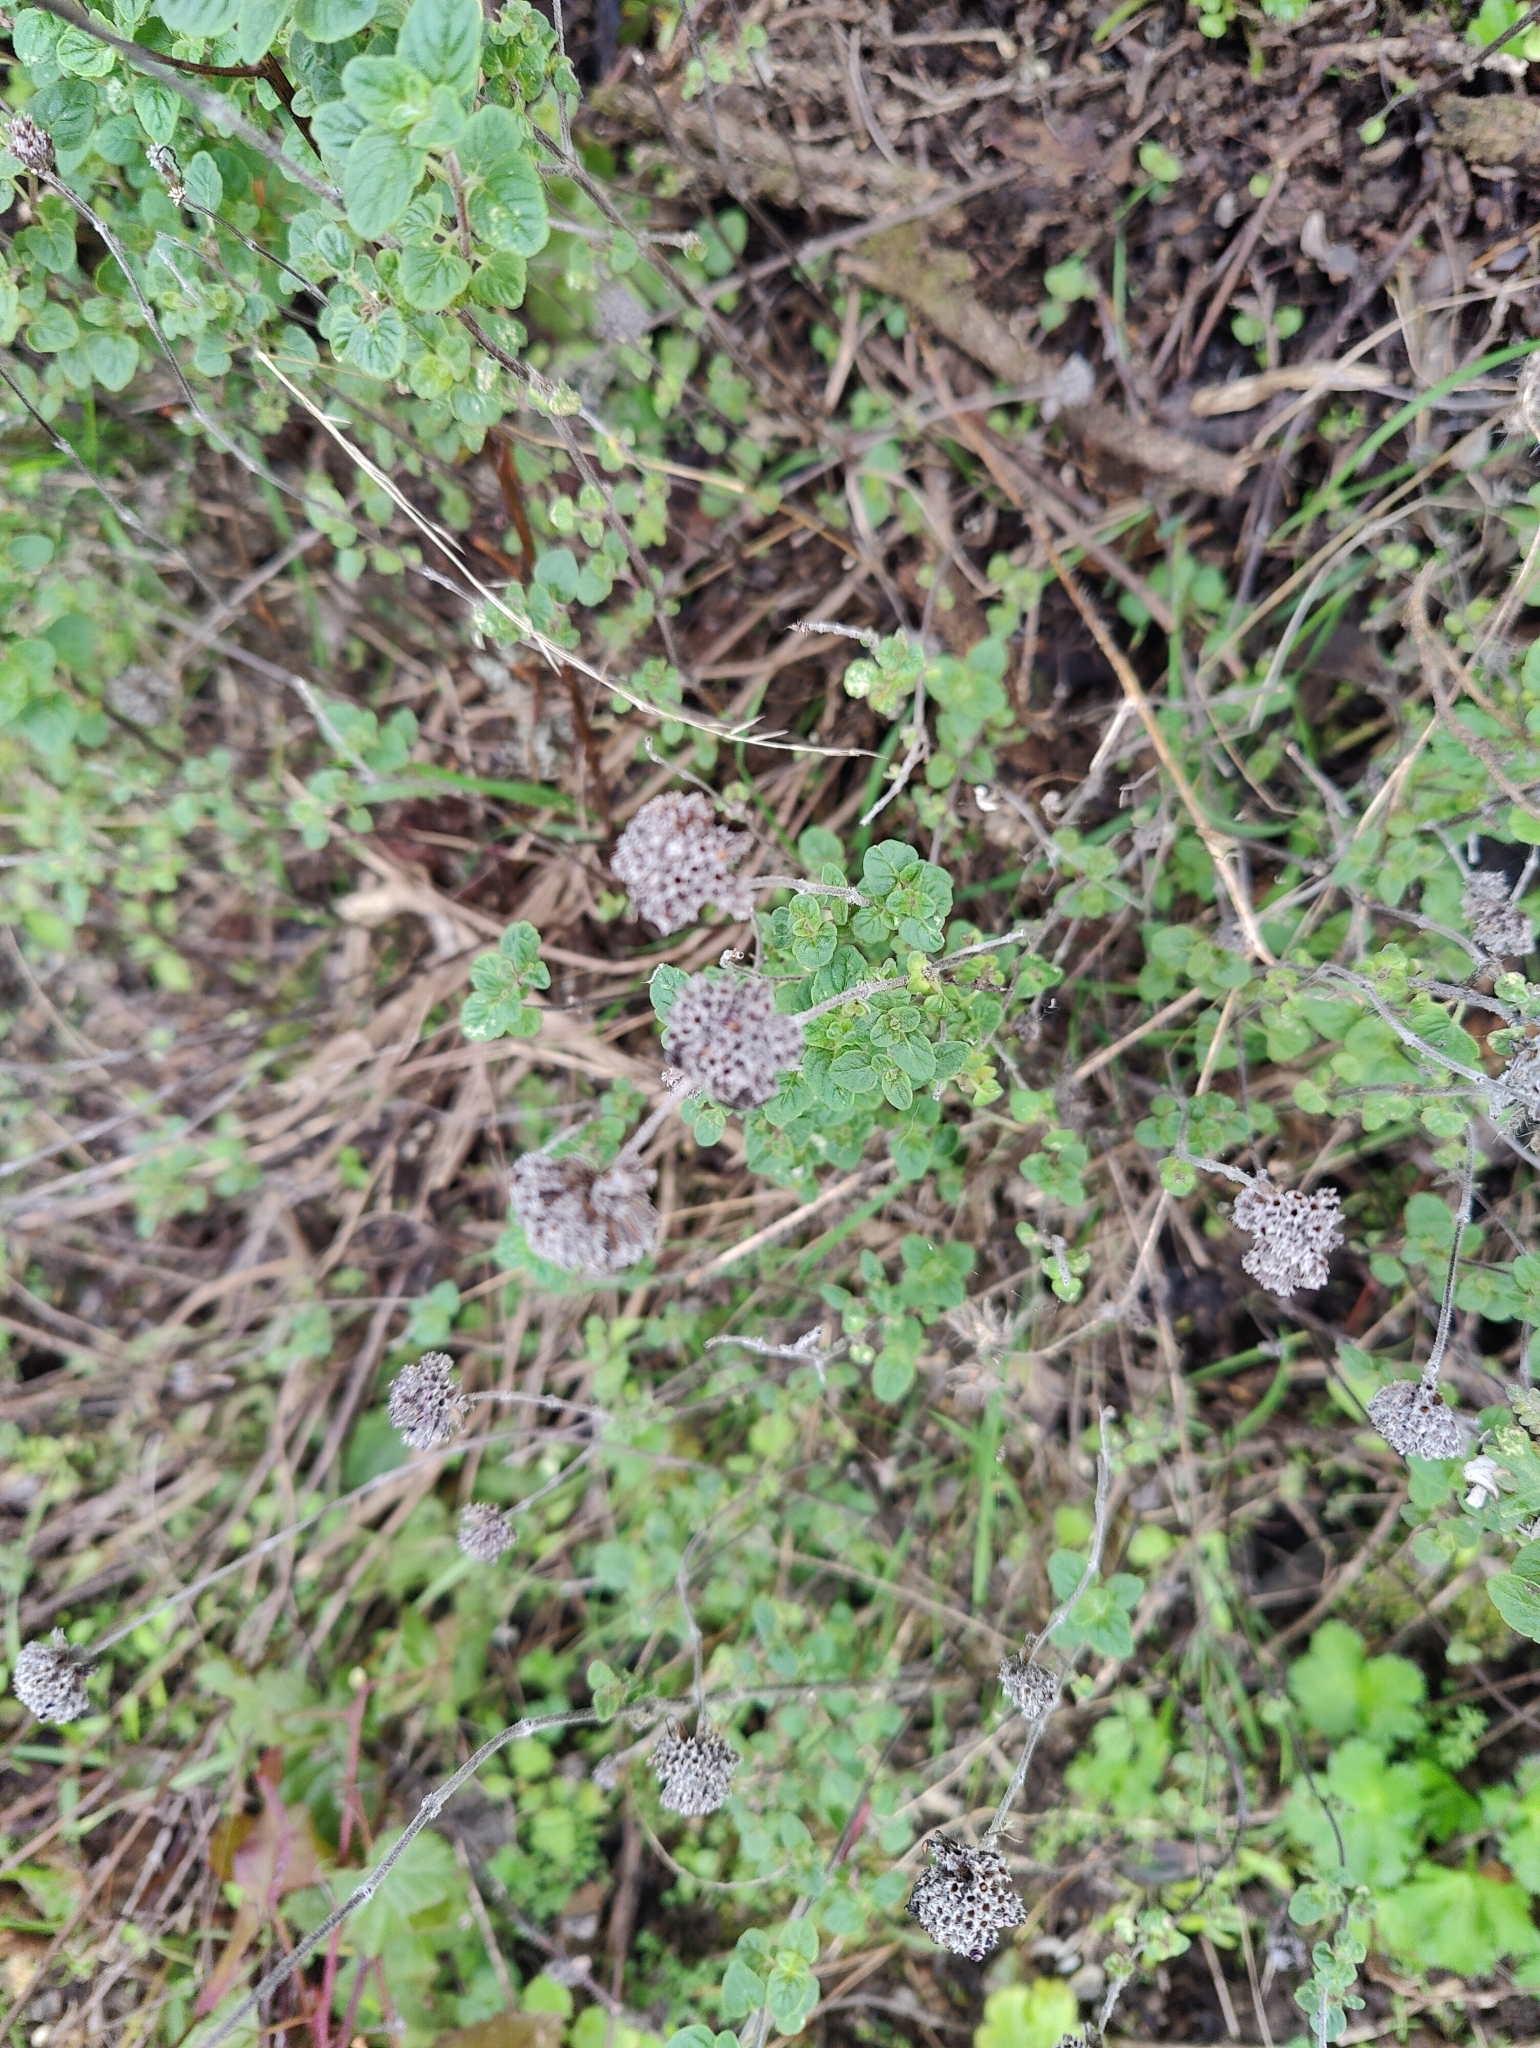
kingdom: Plantae
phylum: Tracheophyta
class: Magnoliopsida
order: Lamiales
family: Lamiaceae
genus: Monardella
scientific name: Monardella odoratissima
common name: Pacific monardella
